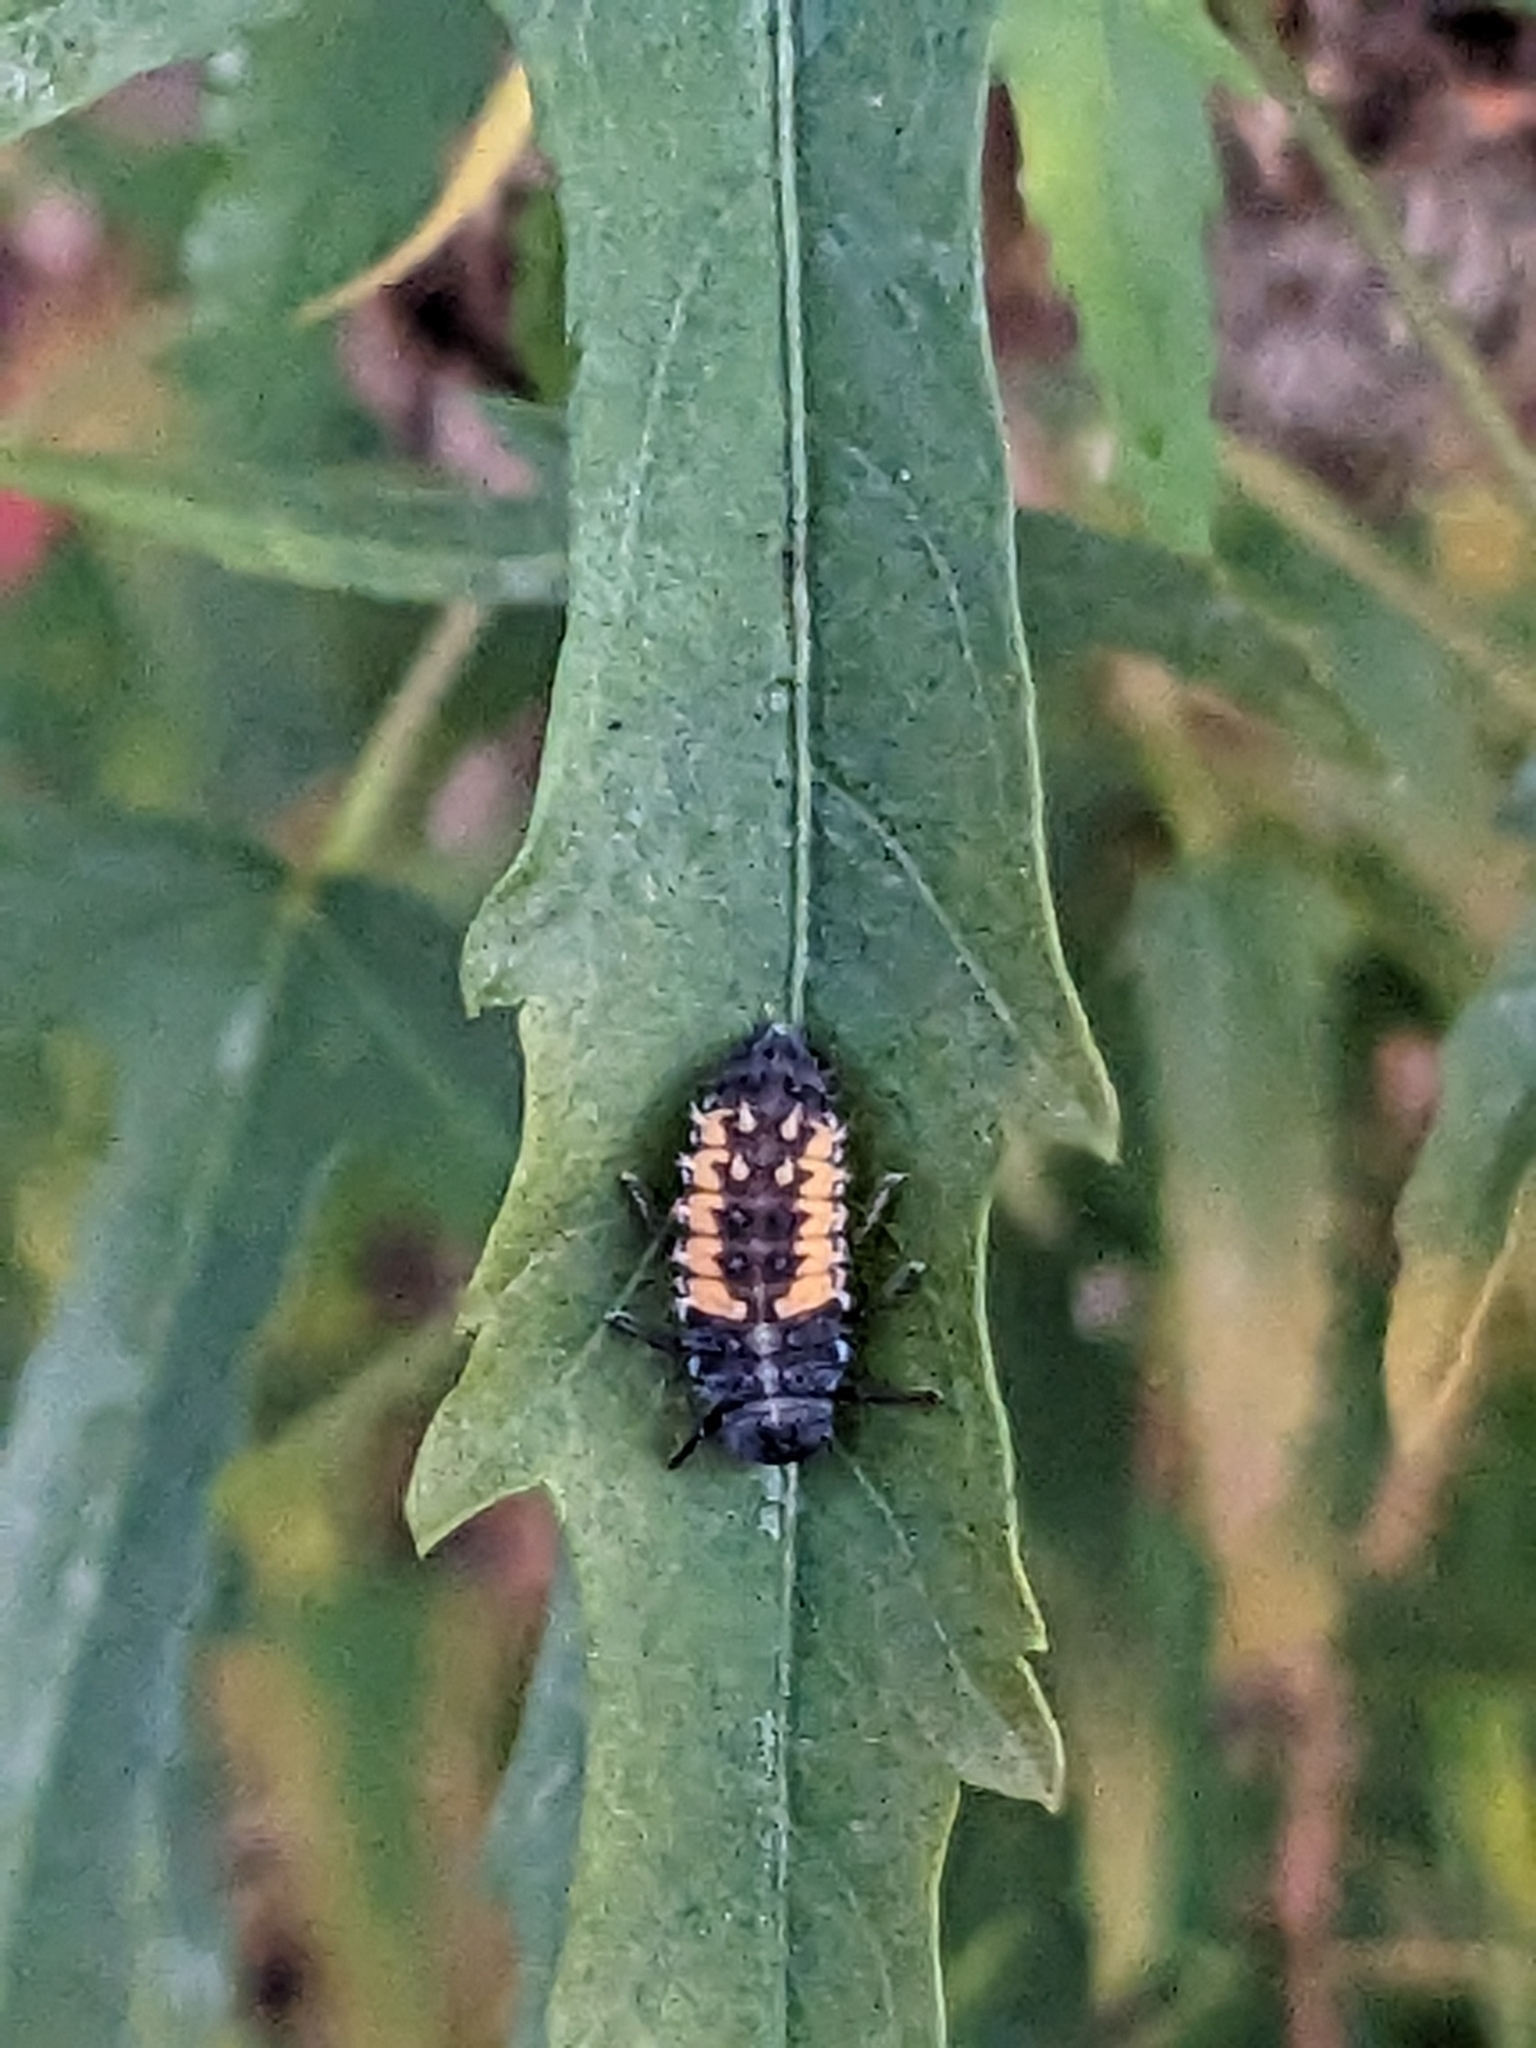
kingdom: Animalia
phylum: Arthropoda
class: Insecta
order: Coleoptera
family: Coccinellidae
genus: Harmonia
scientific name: Harmonia axyridis
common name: Harlequin ladybird
